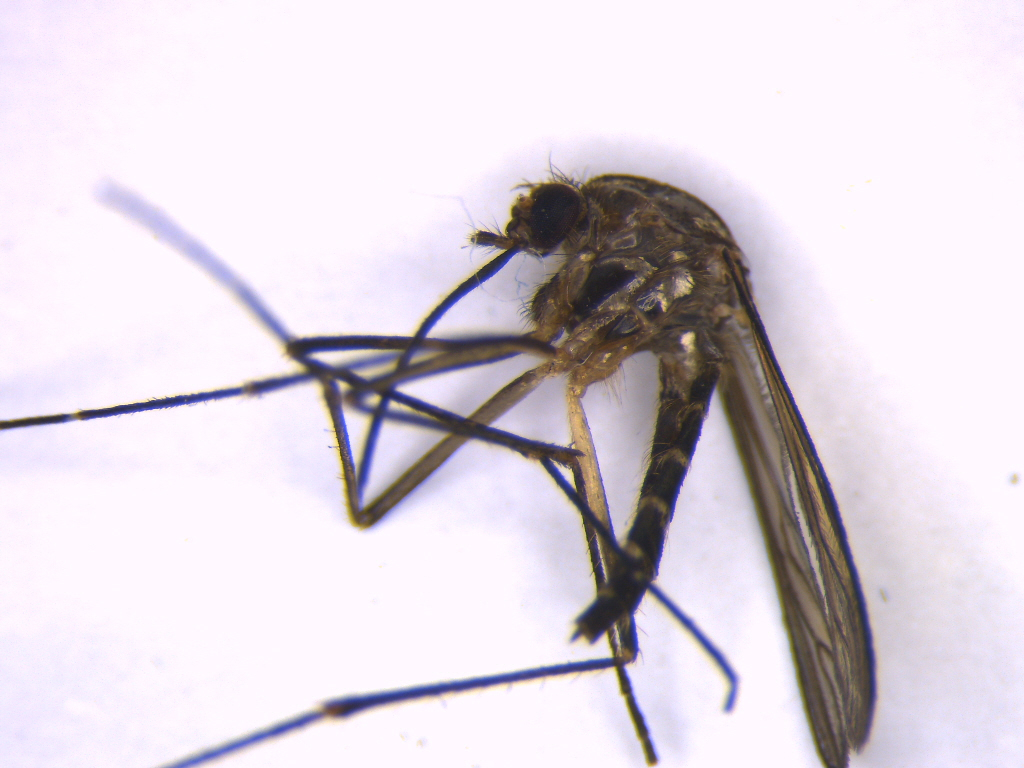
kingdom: Animalia
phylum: Arthropoda
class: Insecta
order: Diptera
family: Culicidae
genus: Aedes
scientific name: Aedes antipodeus
